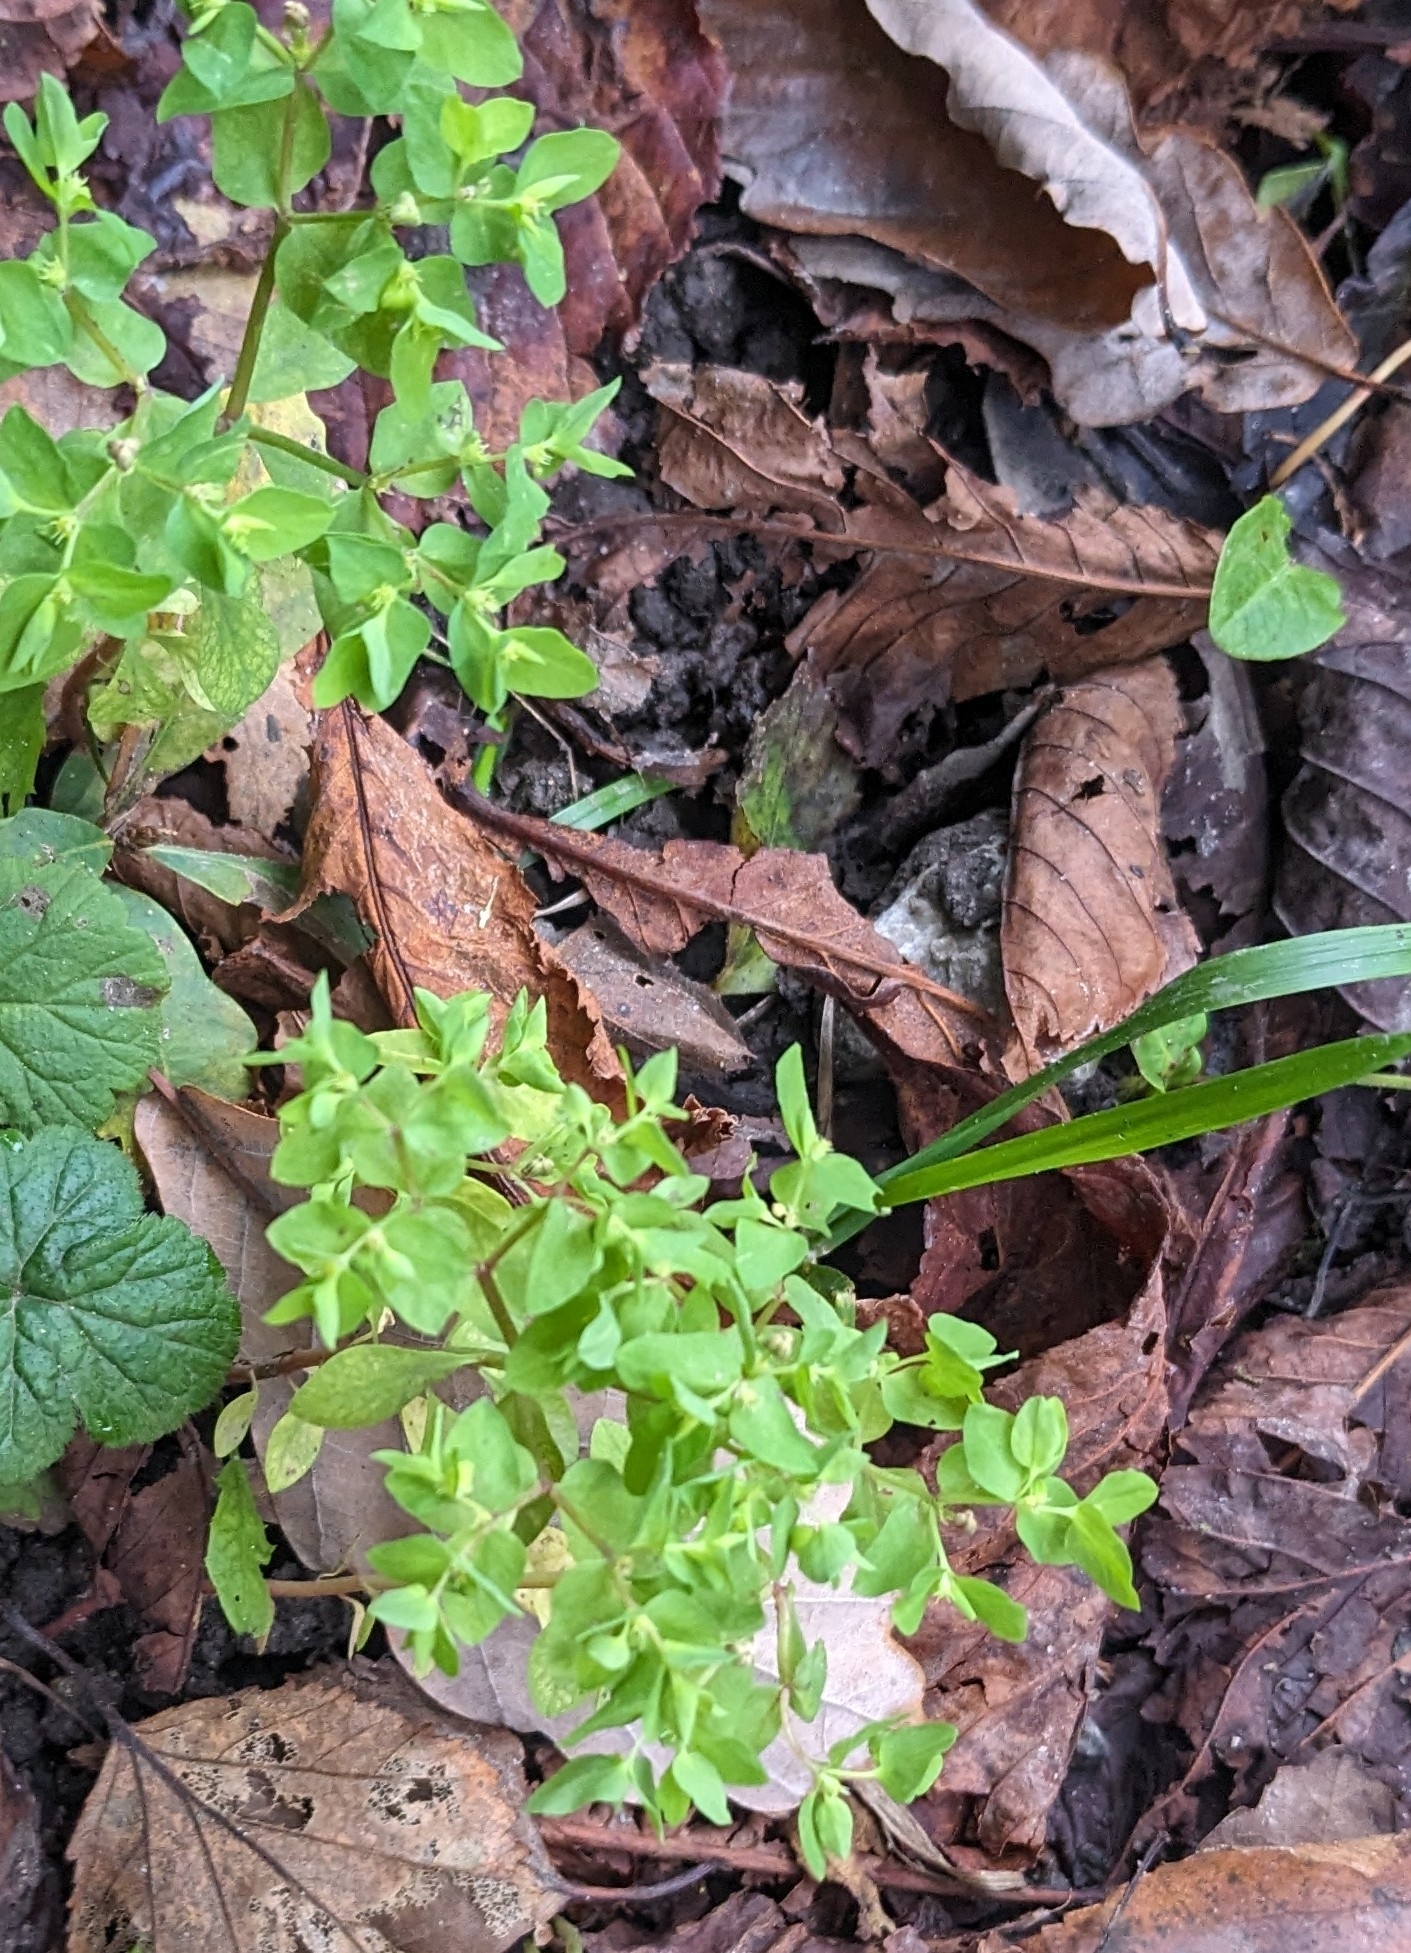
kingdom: Plantae
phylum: Tracheophyta
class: Magnoliopsida
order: Malpighiales
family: Euphorbiaceae
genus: Euphorbia
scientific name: Euphorbia peplus
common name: Petty spurge
